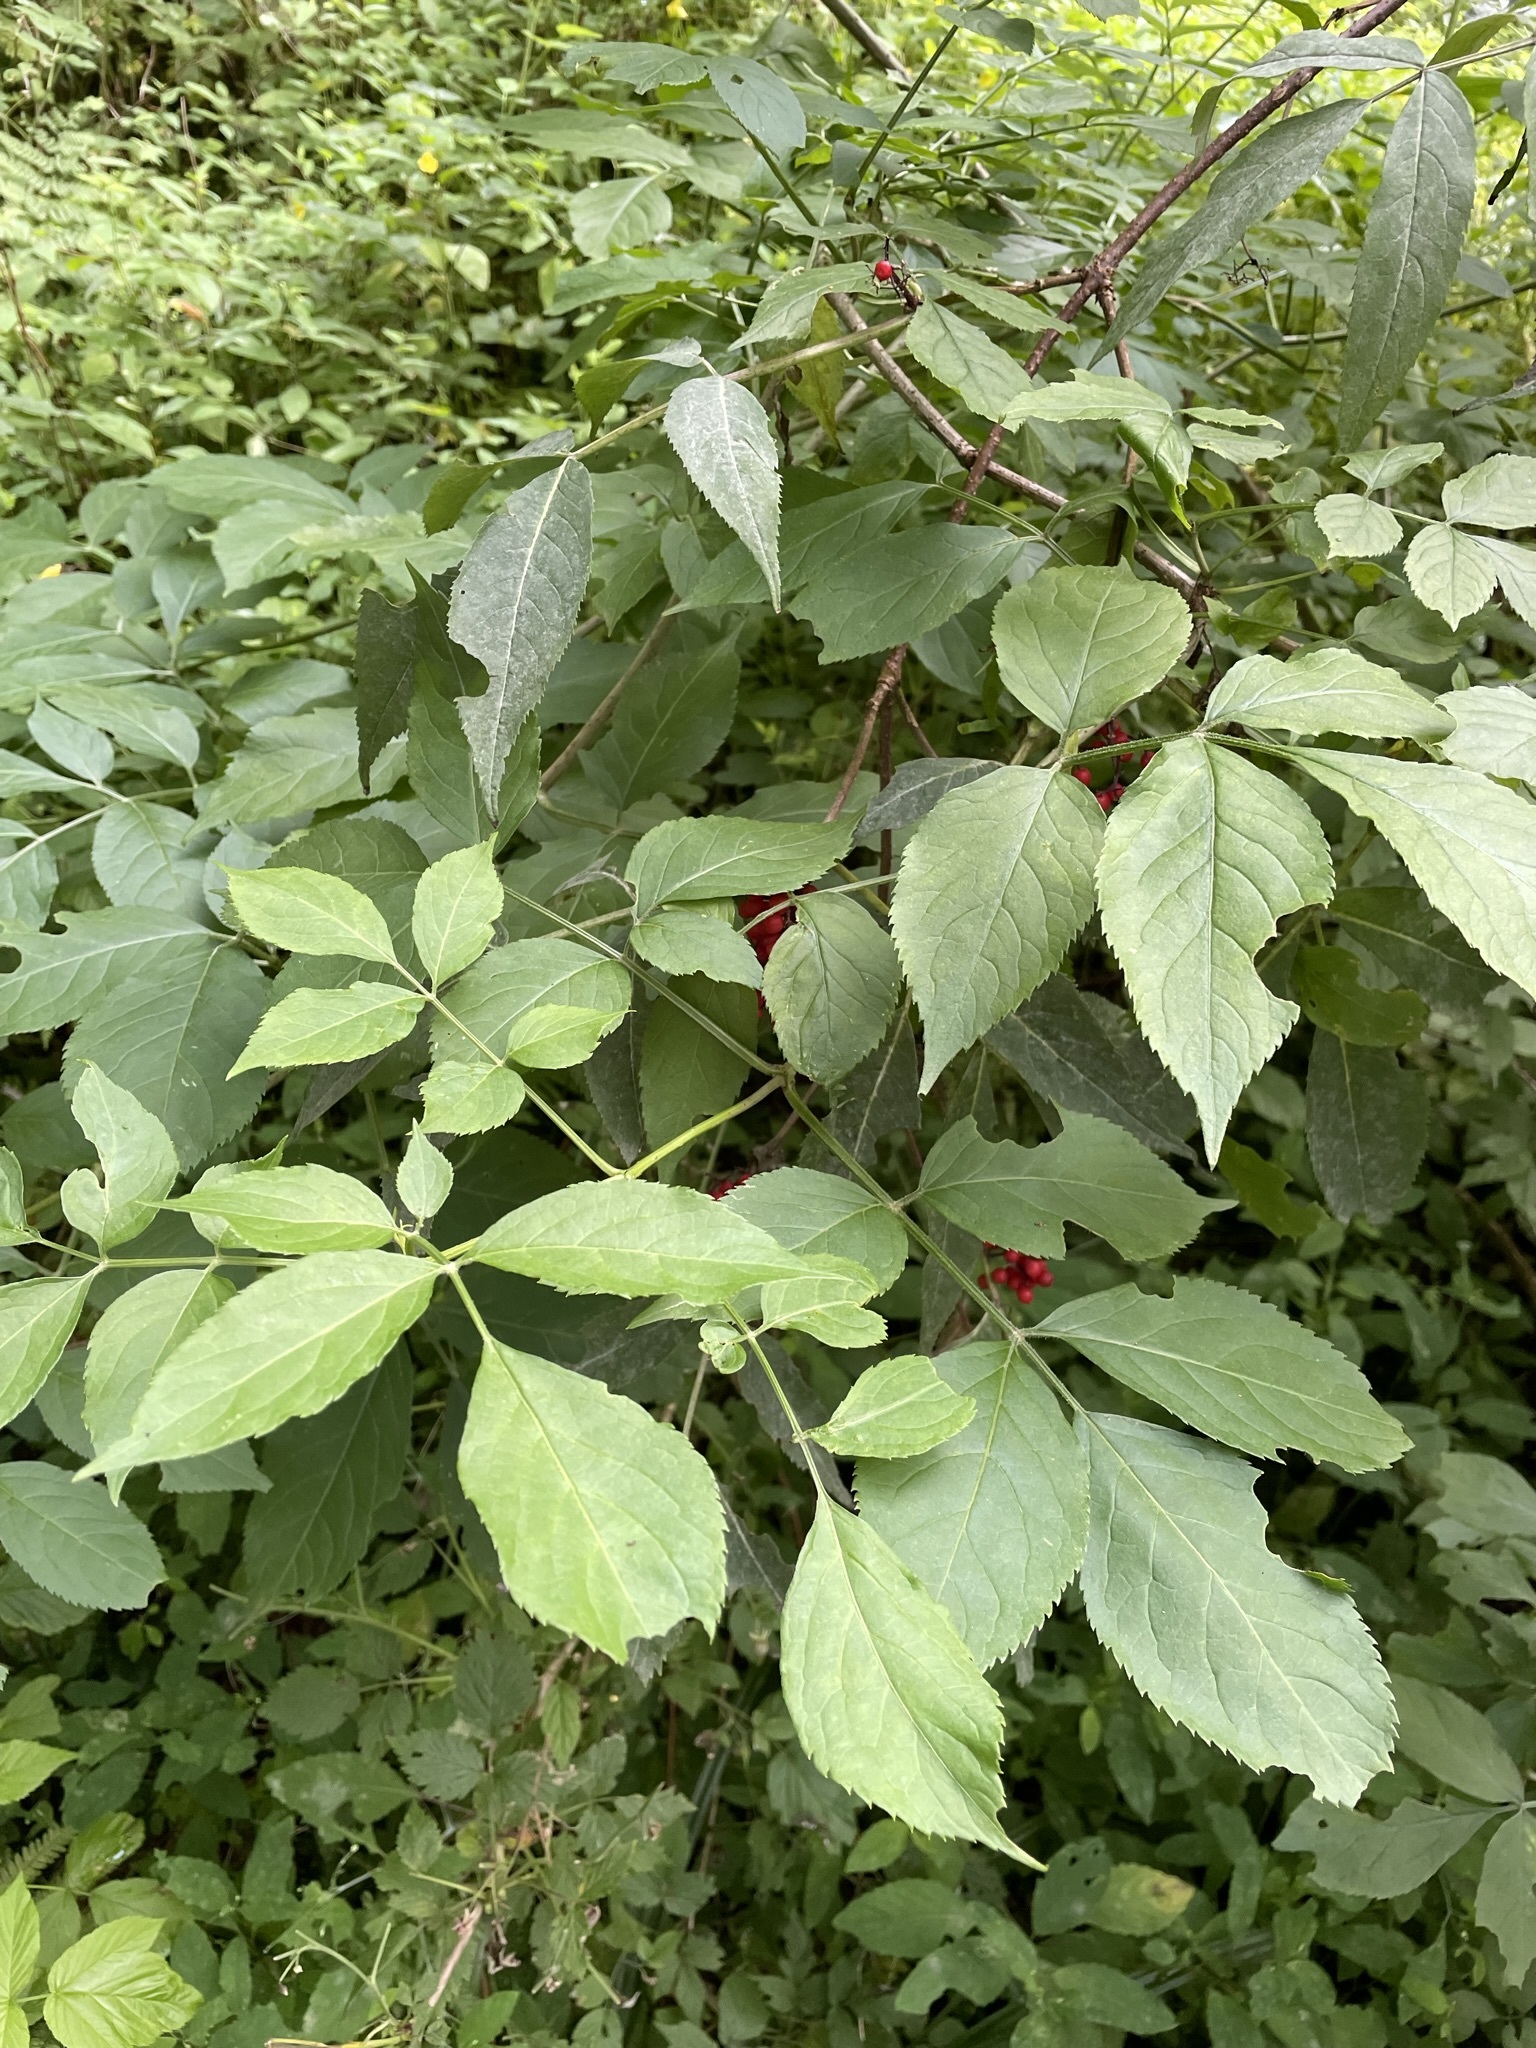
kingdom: Plantae
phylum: Tracheophyta
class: Magnoliopsida
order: Dipsacales
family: Viburnaceae
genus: Sambucus
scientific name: Sambucus racemosa
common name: Red-berried elder
